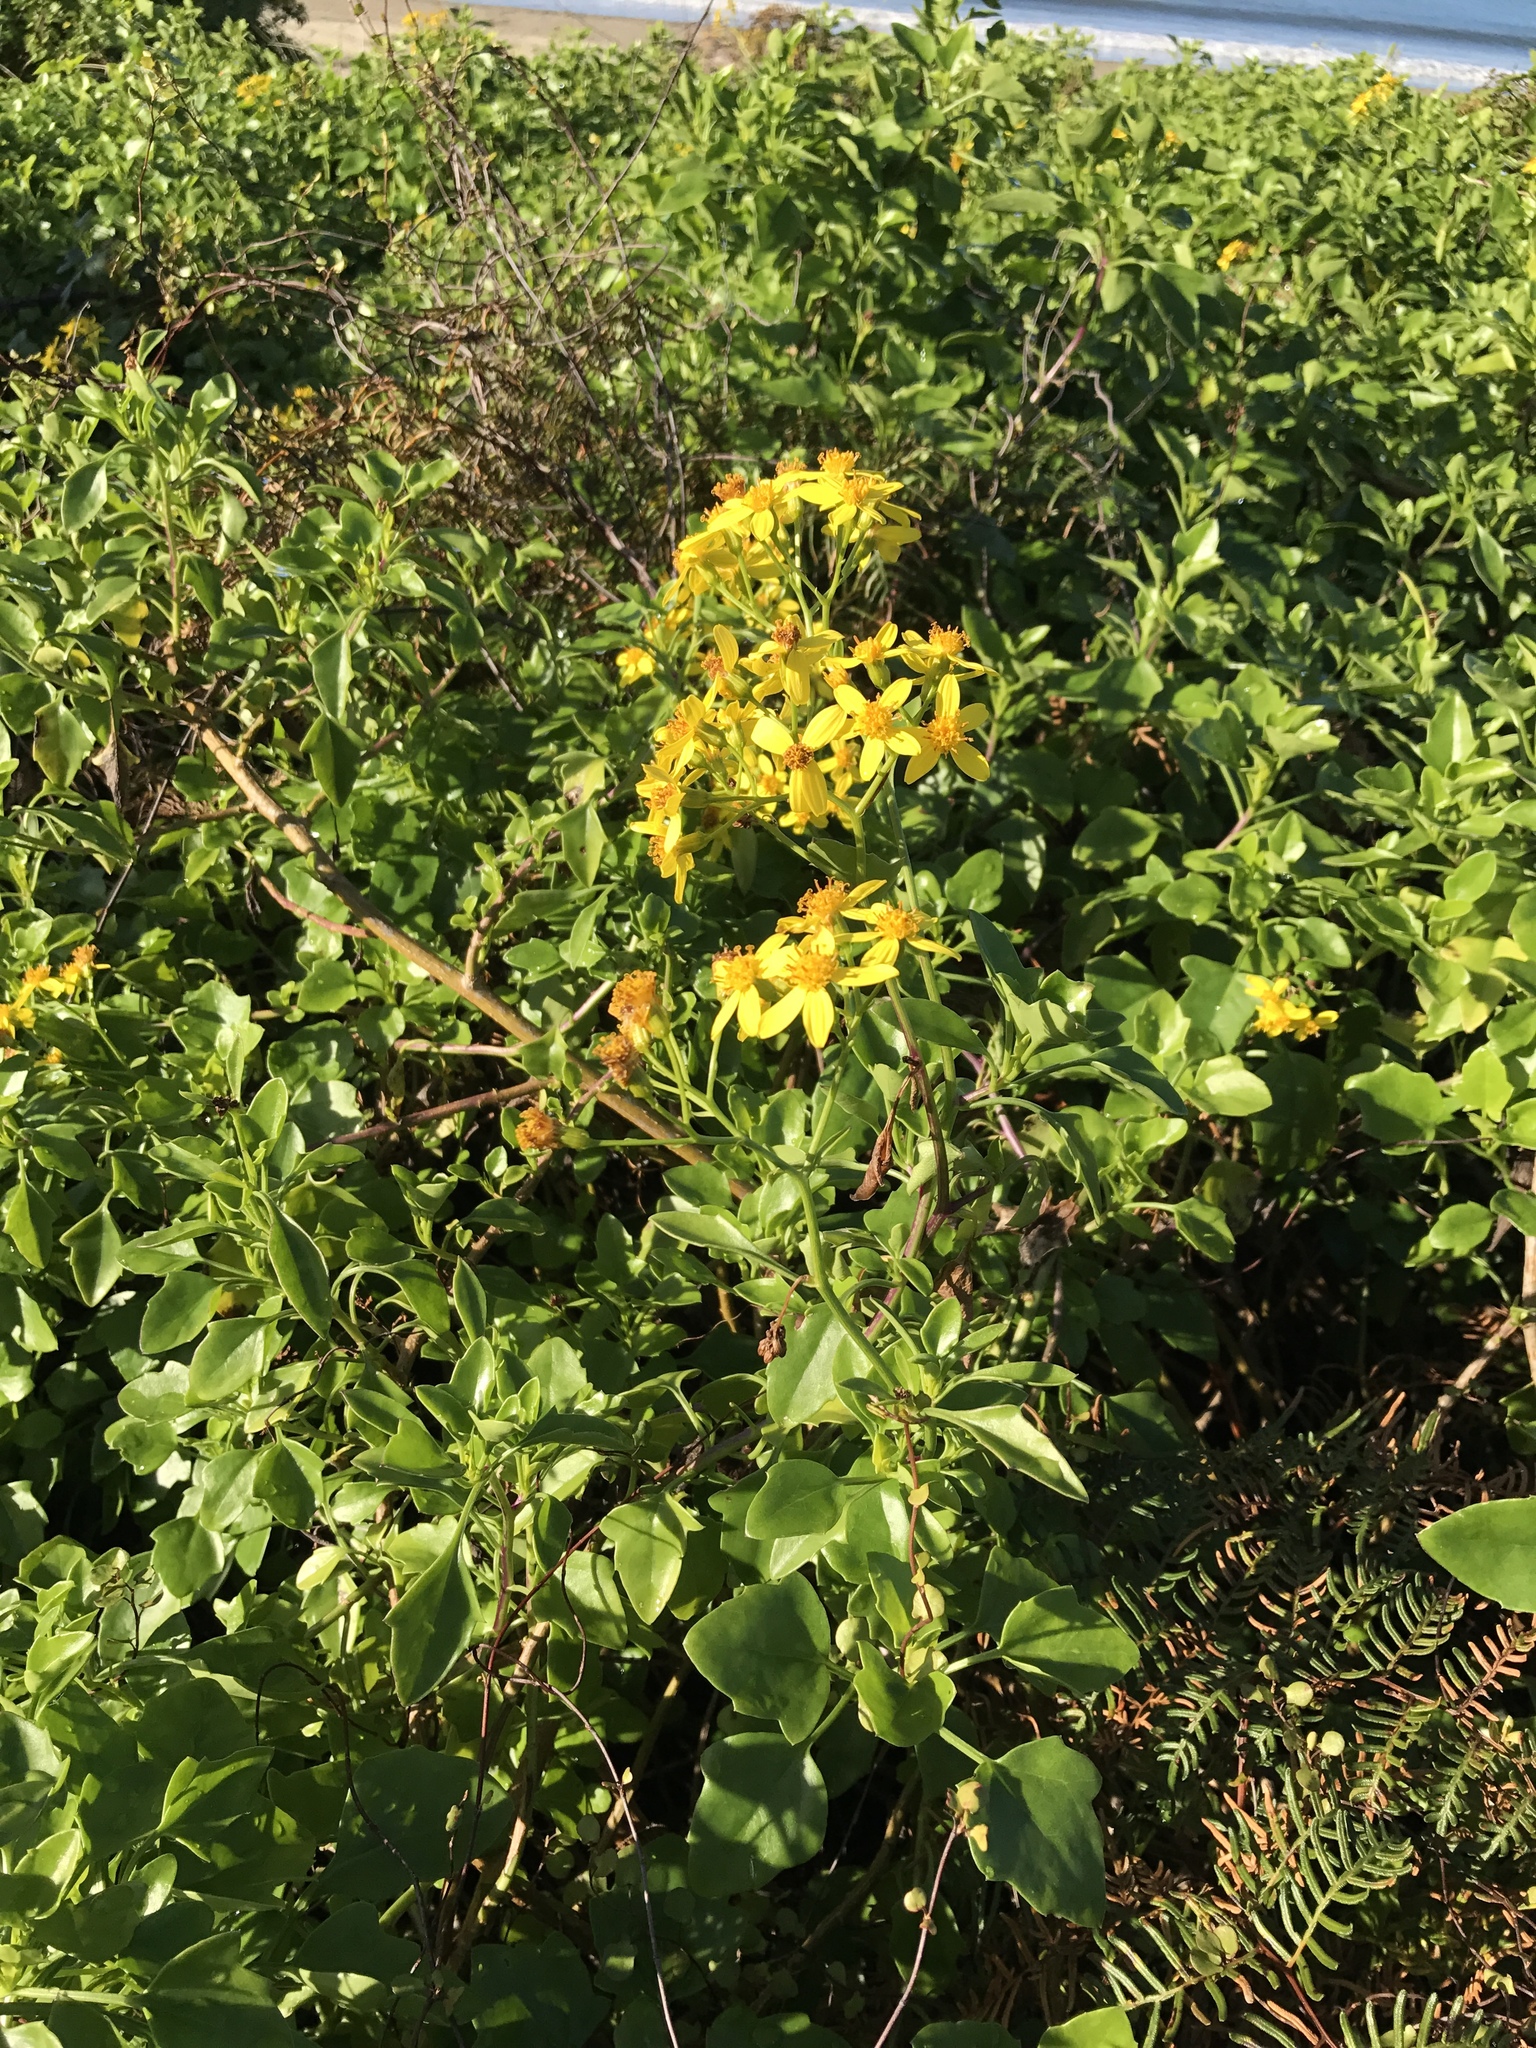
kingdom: Plantae
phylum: Tracheophyta
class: Magnoliopsida
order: Asterales
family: Asteraceae
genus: Senecio
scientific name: Senecio angulatus
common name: Climbing groundsel
